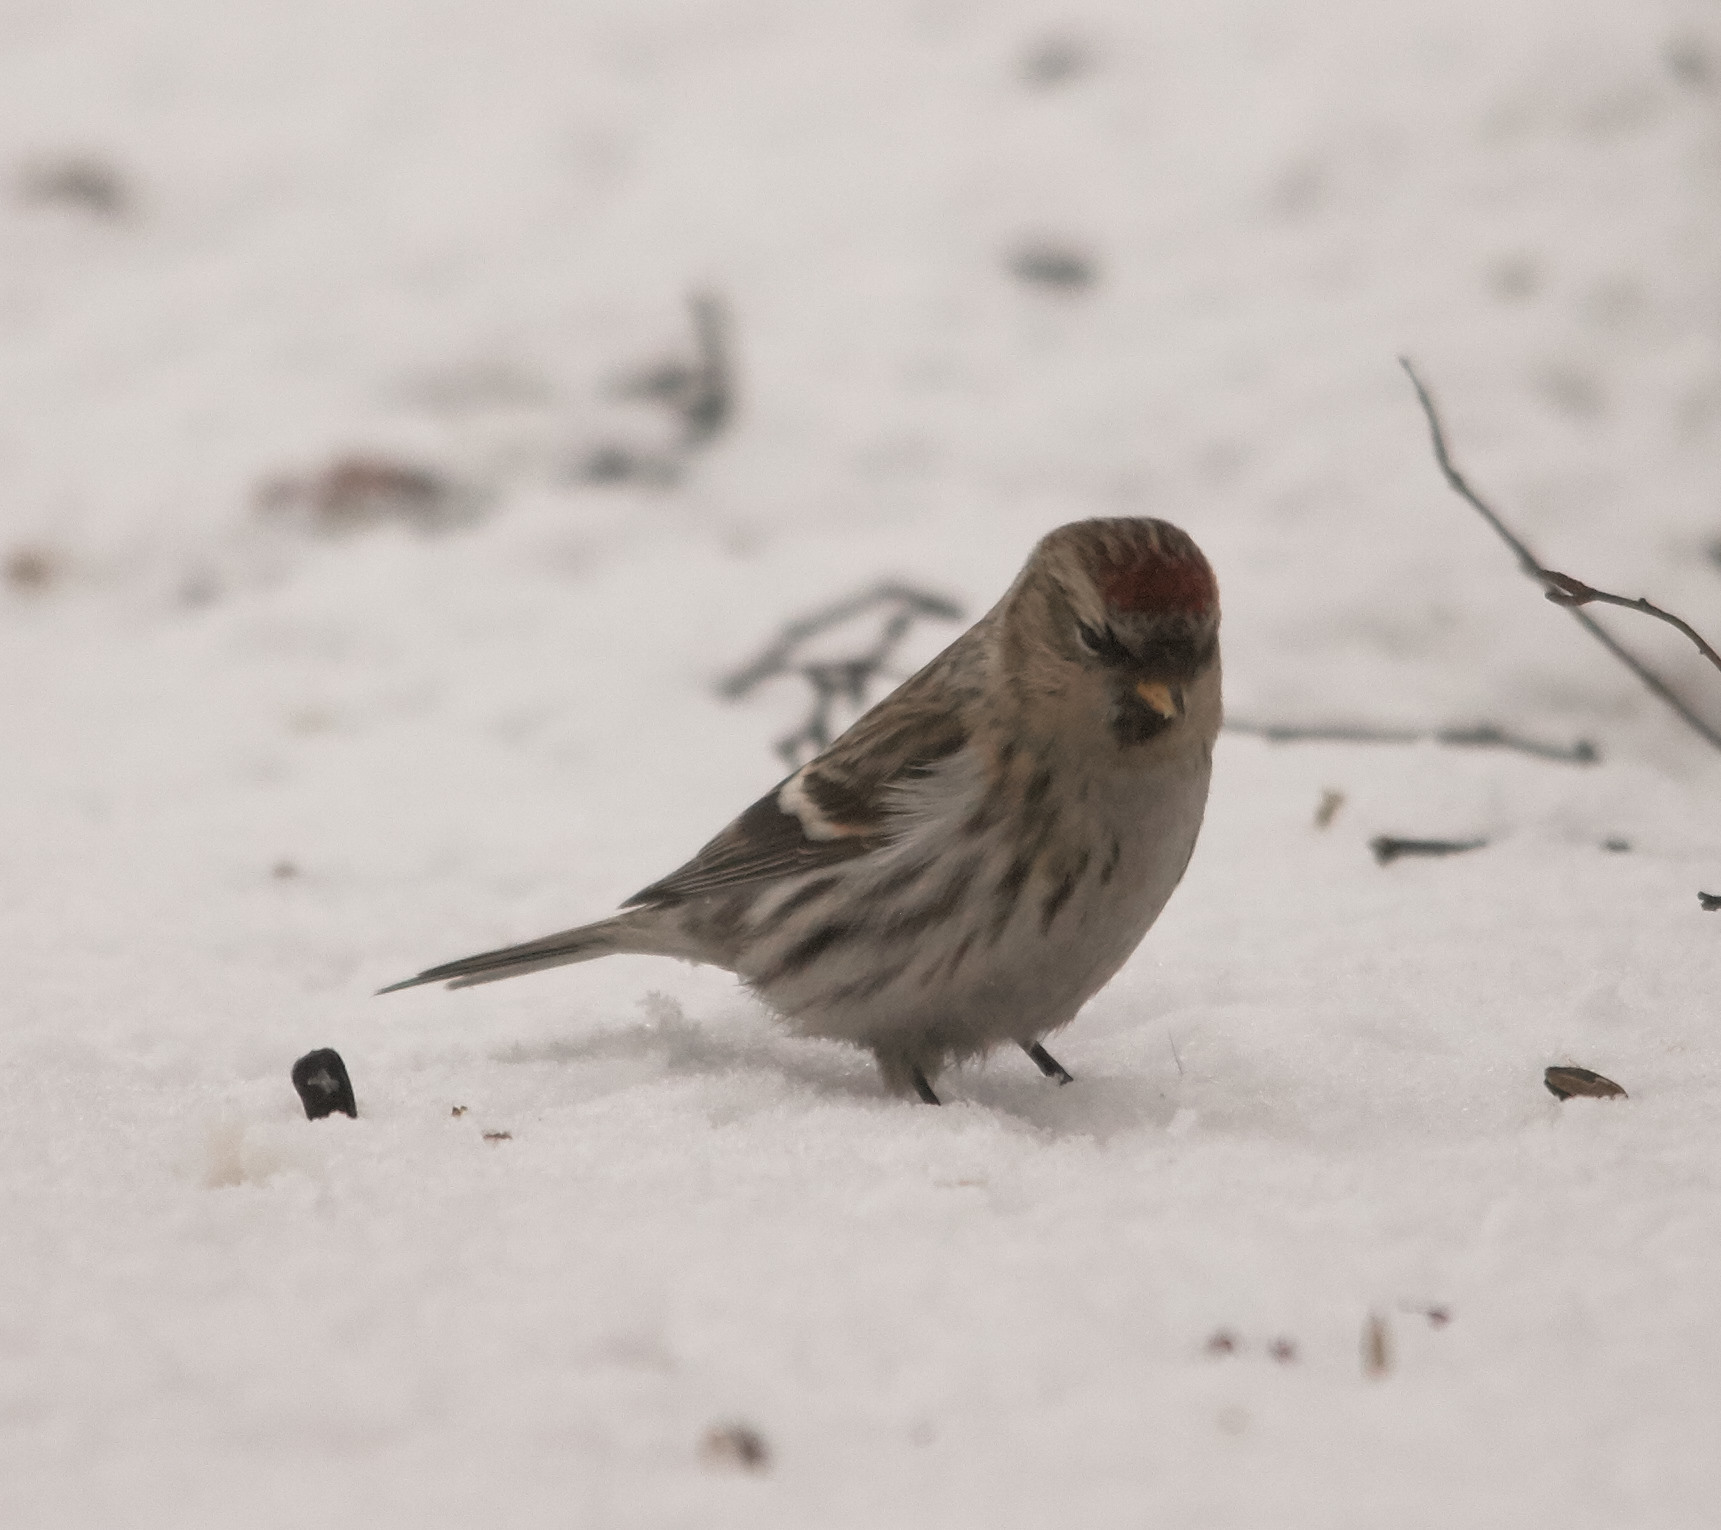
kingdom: Animalia
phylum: Chordata
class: Aves
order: Passeriformes
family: Fringillidae
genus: Acanthis
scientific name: Acanthis flammea
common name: Common redpoll
